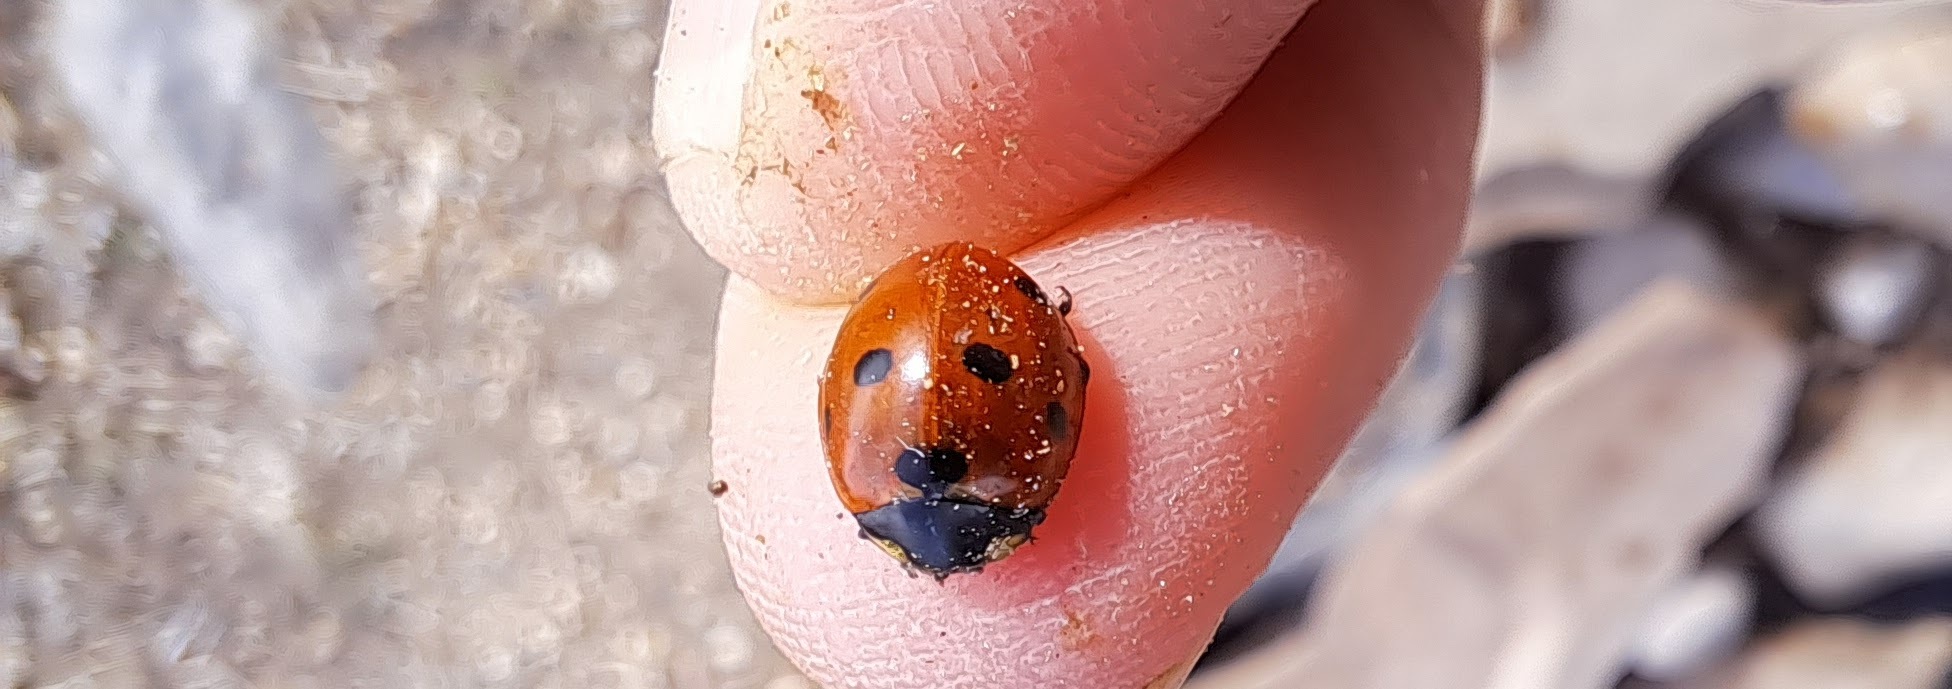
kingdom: Animalia
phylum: Arthropoda
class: Insecta
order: Coleoptera
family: Coccinellidae
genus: Coccinella
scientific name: Coccinella septempunctata
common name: Sevenspotted lady beetle
